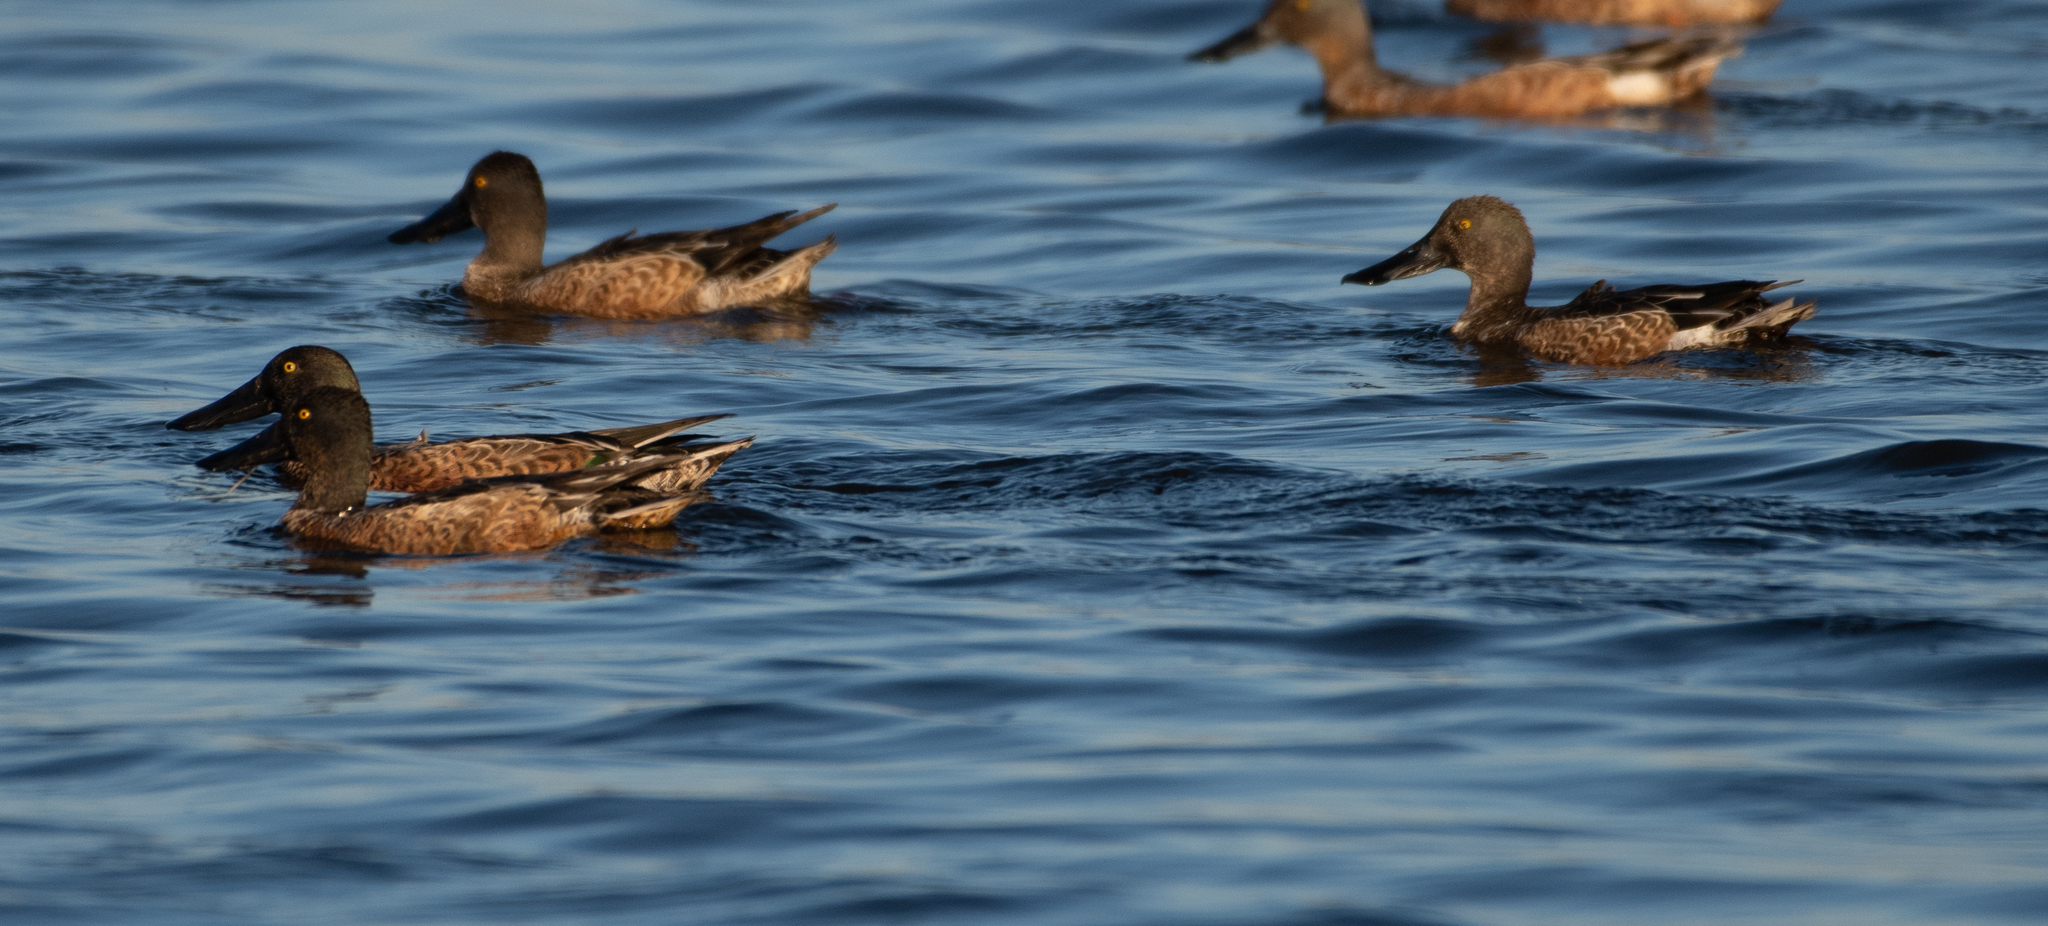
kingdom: Animalia
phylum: Chordata
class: Aves
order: Anseriformes
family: Anatidae
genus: Spatula
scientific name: Spatula clypeata
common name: Northern shoveler
